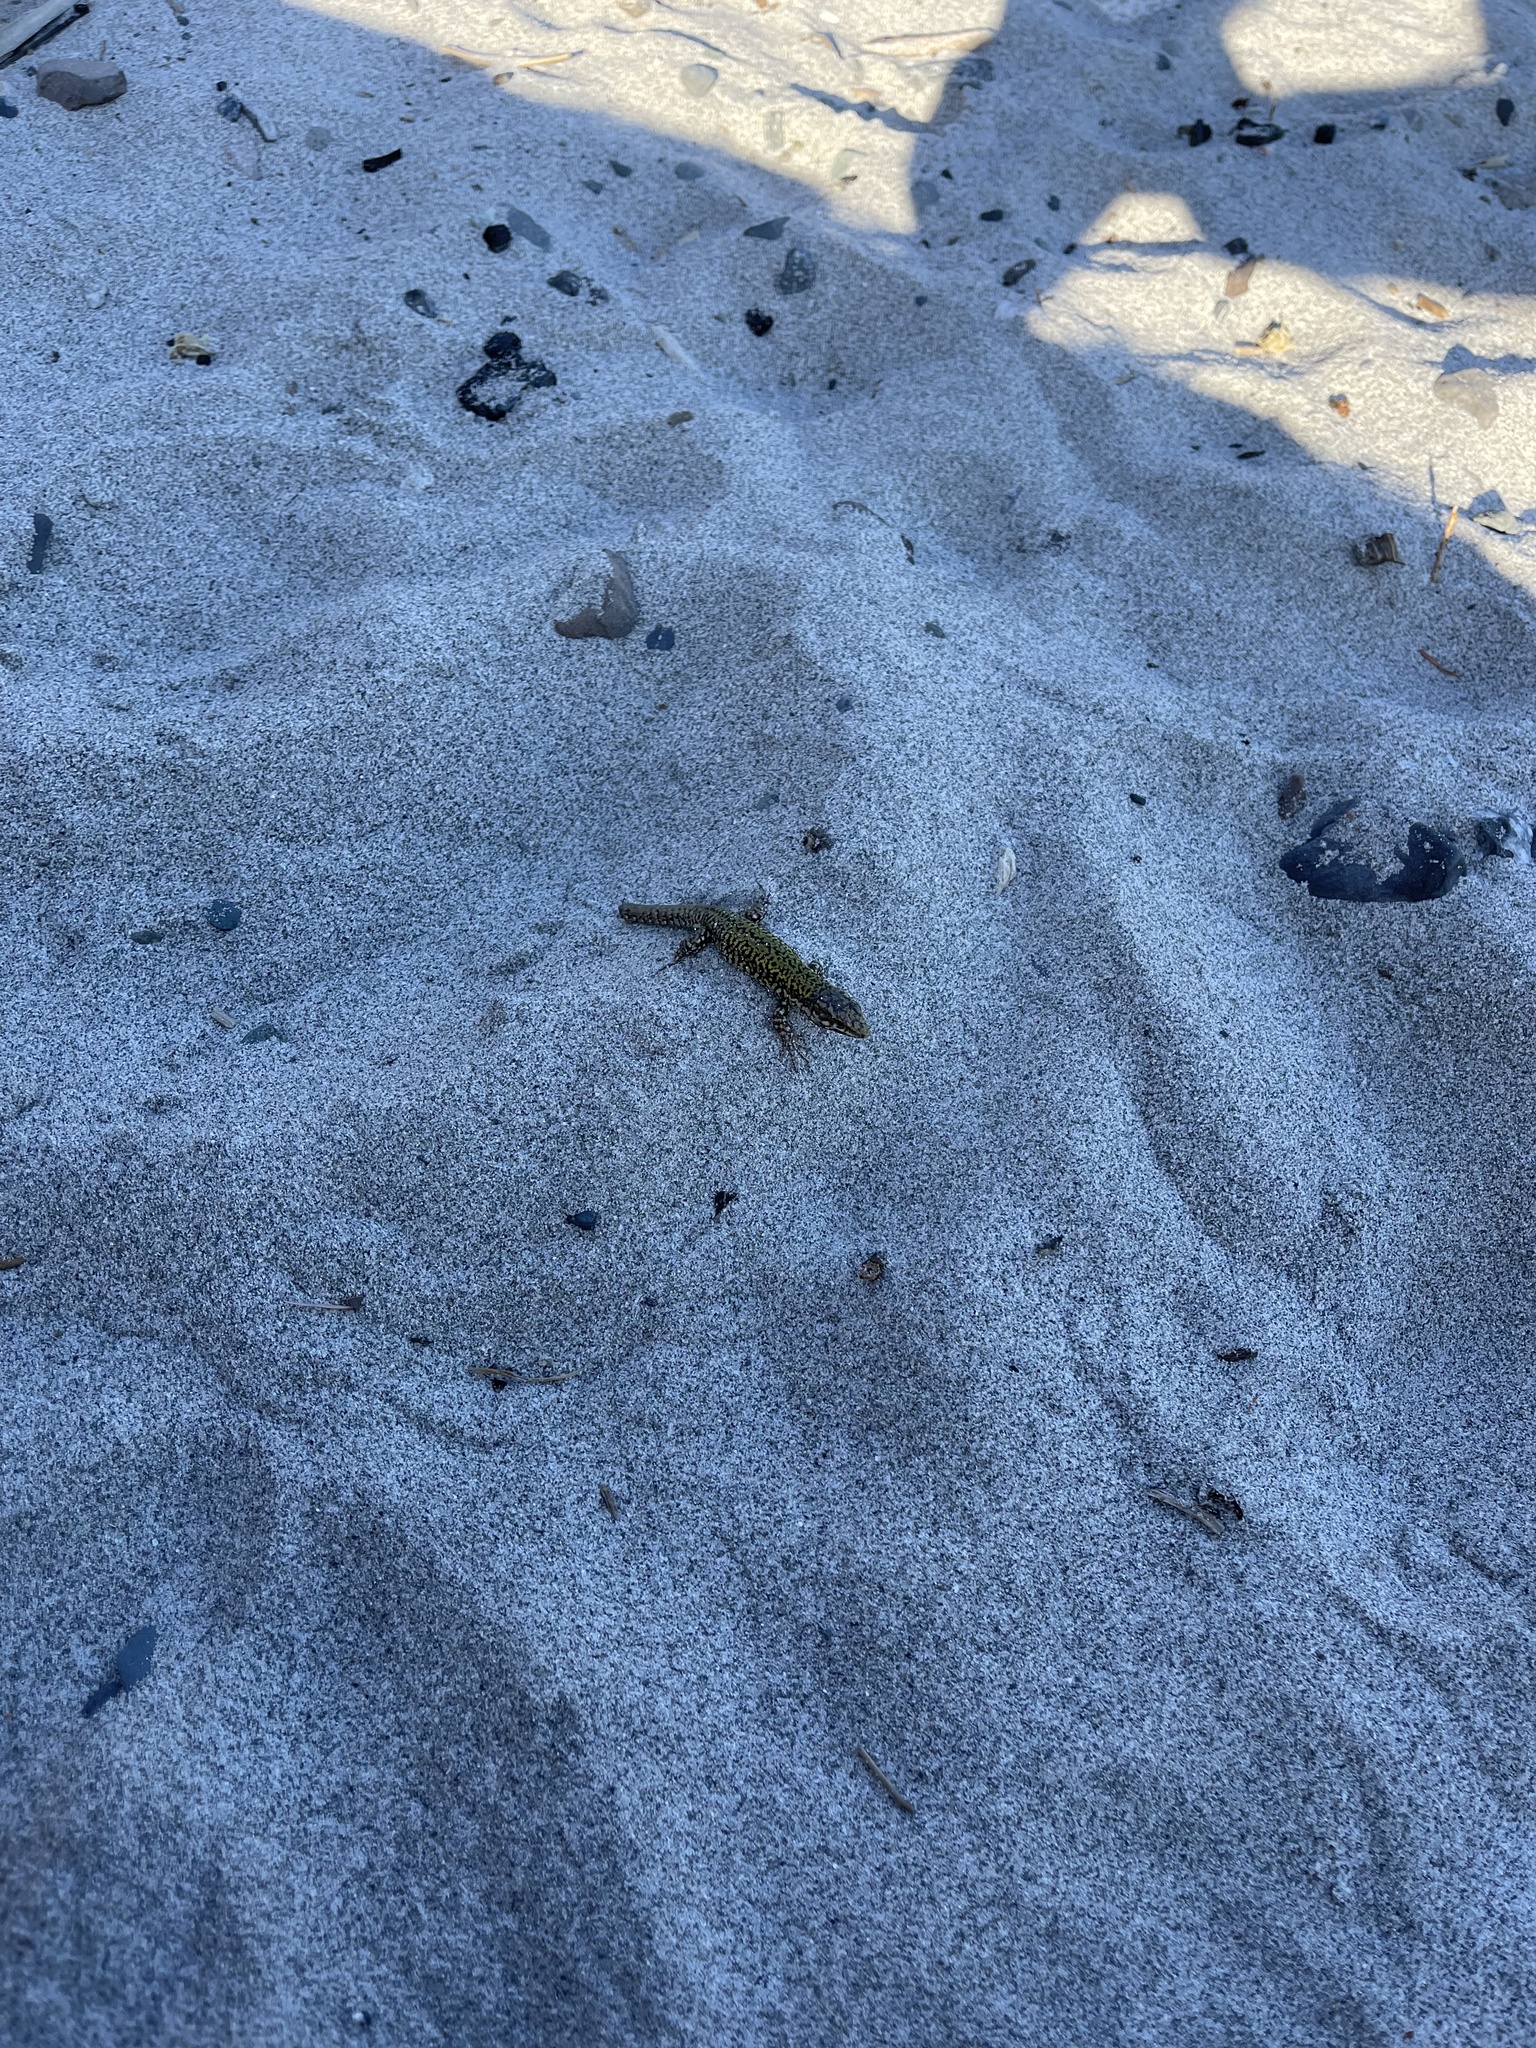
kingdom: Animalia
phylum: Chordata
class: Squamata
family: Lacertidae
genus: Podarcis
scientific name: Podarcis muralis
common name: Common wall lizard
